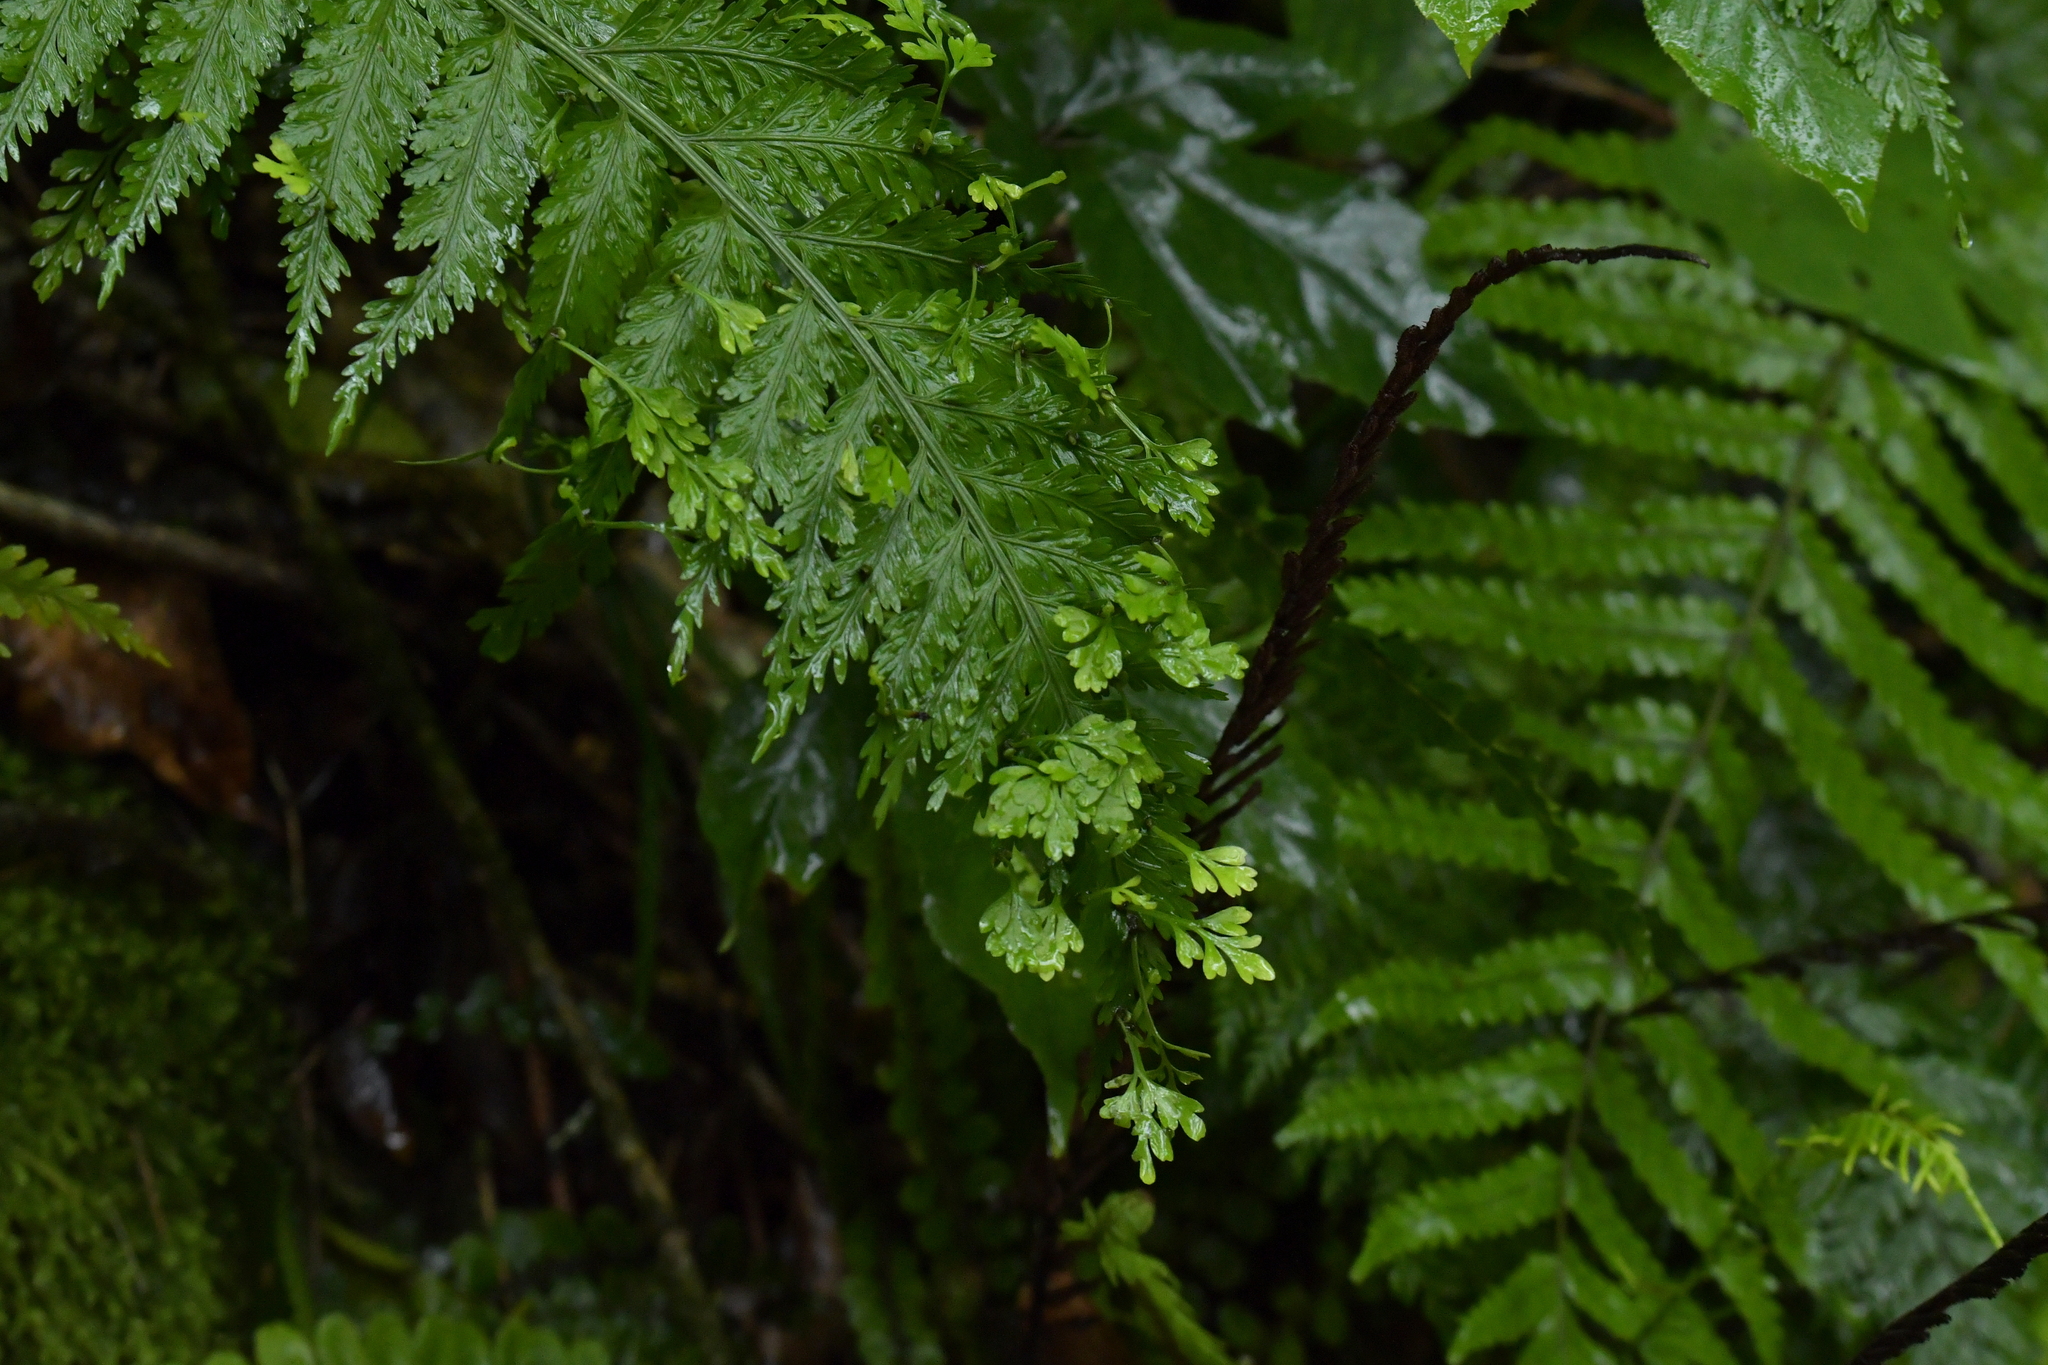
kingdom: Plantae
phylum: Tracheophyta
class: Polypodiopsida
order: Polypodiales
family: Aspleniaceae
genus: Asplenium
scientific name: Asplenium bulbiferum
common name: Mother fern
